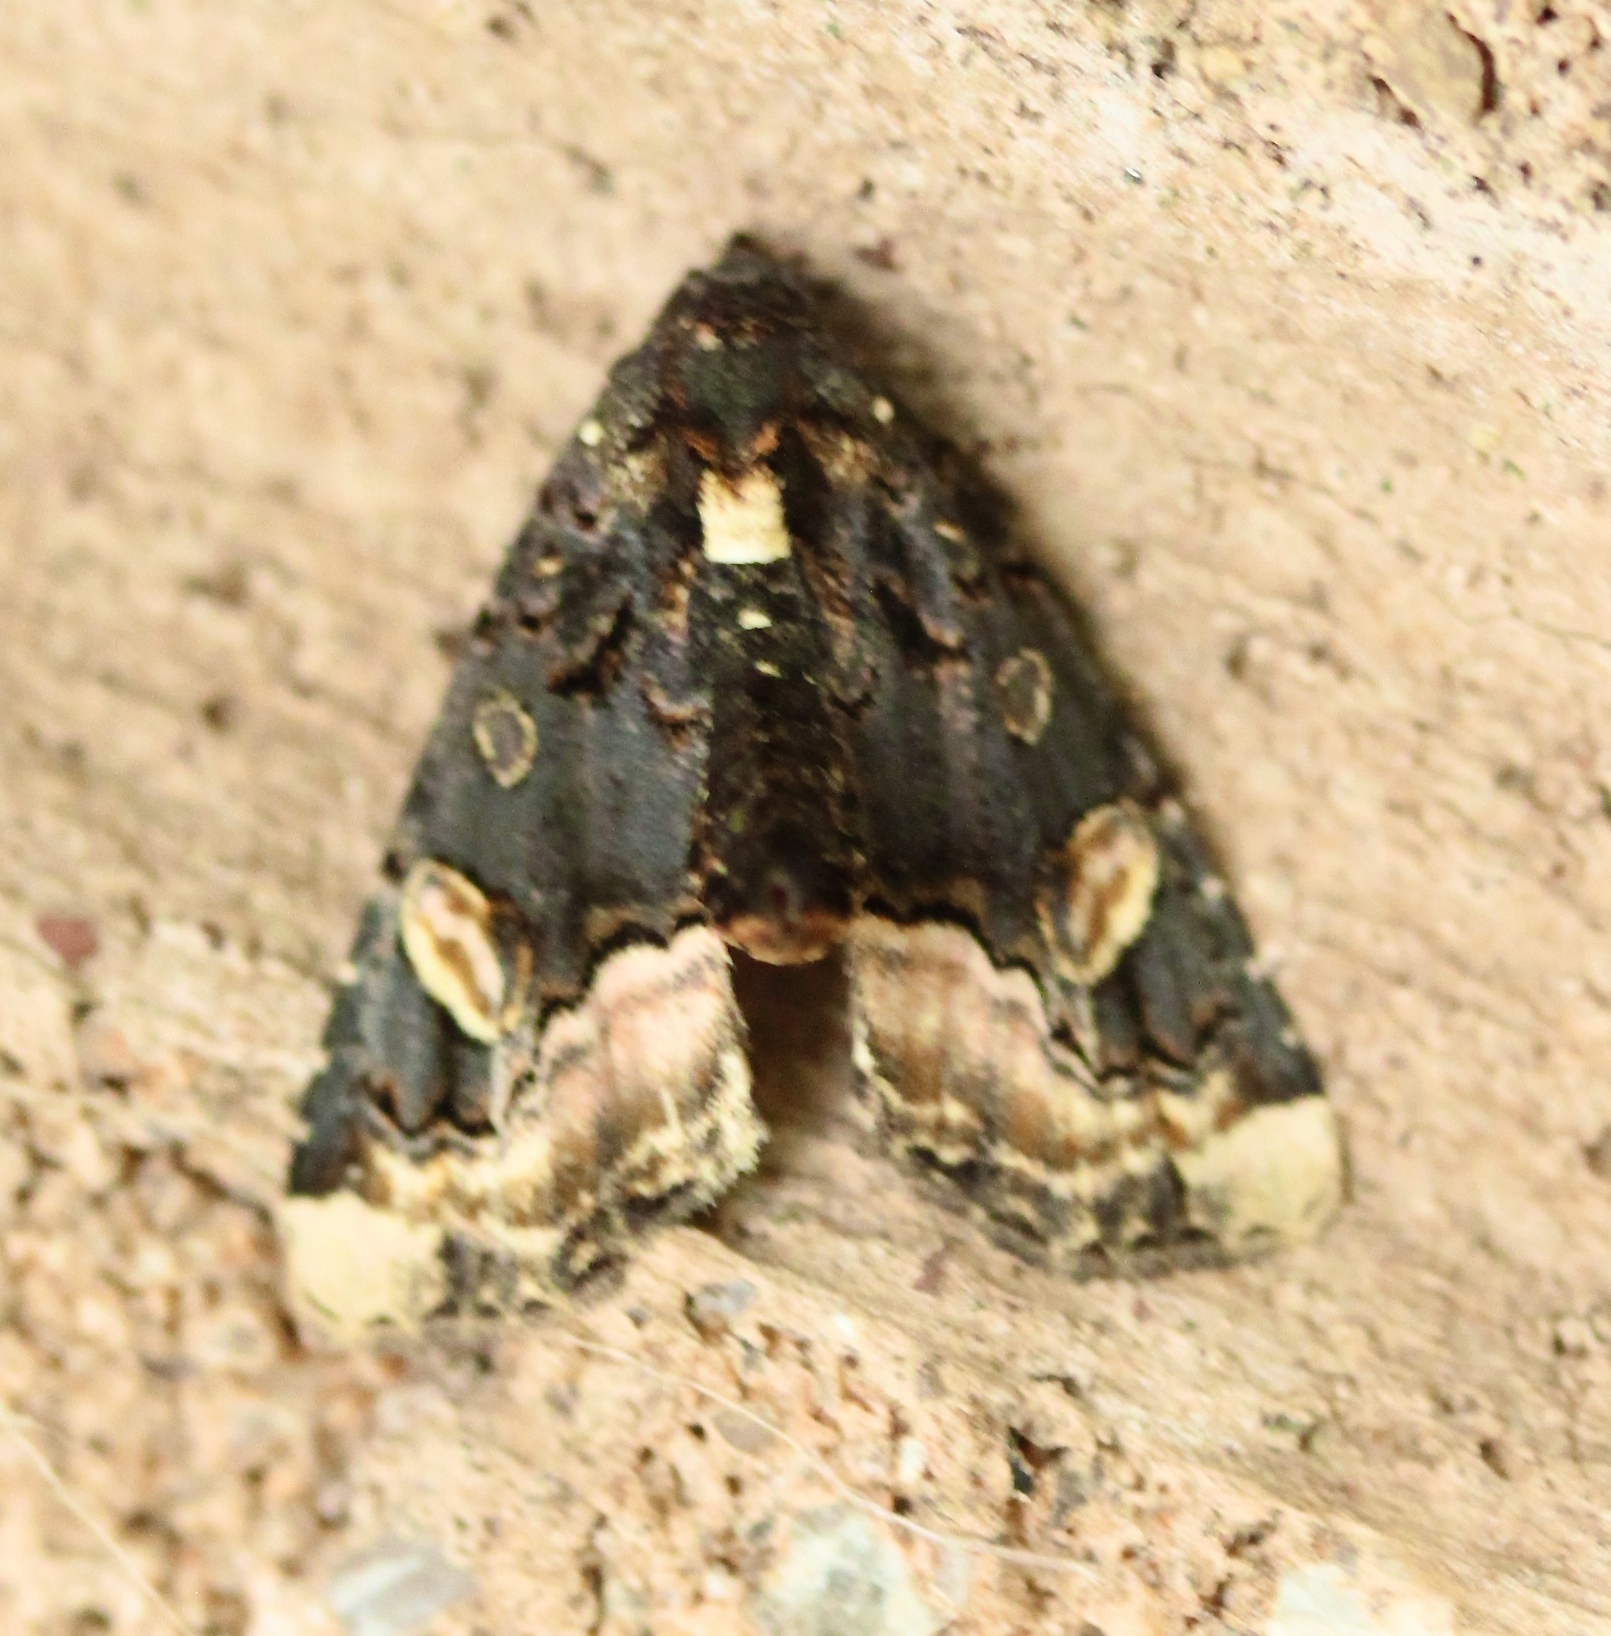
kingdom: Animalia
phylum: Arthropoda
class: Insecta
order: Lepidoptera
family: Noctuidae
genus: Homophoberia
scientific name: Homophoberia apicosa
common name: Black wedge-spot
